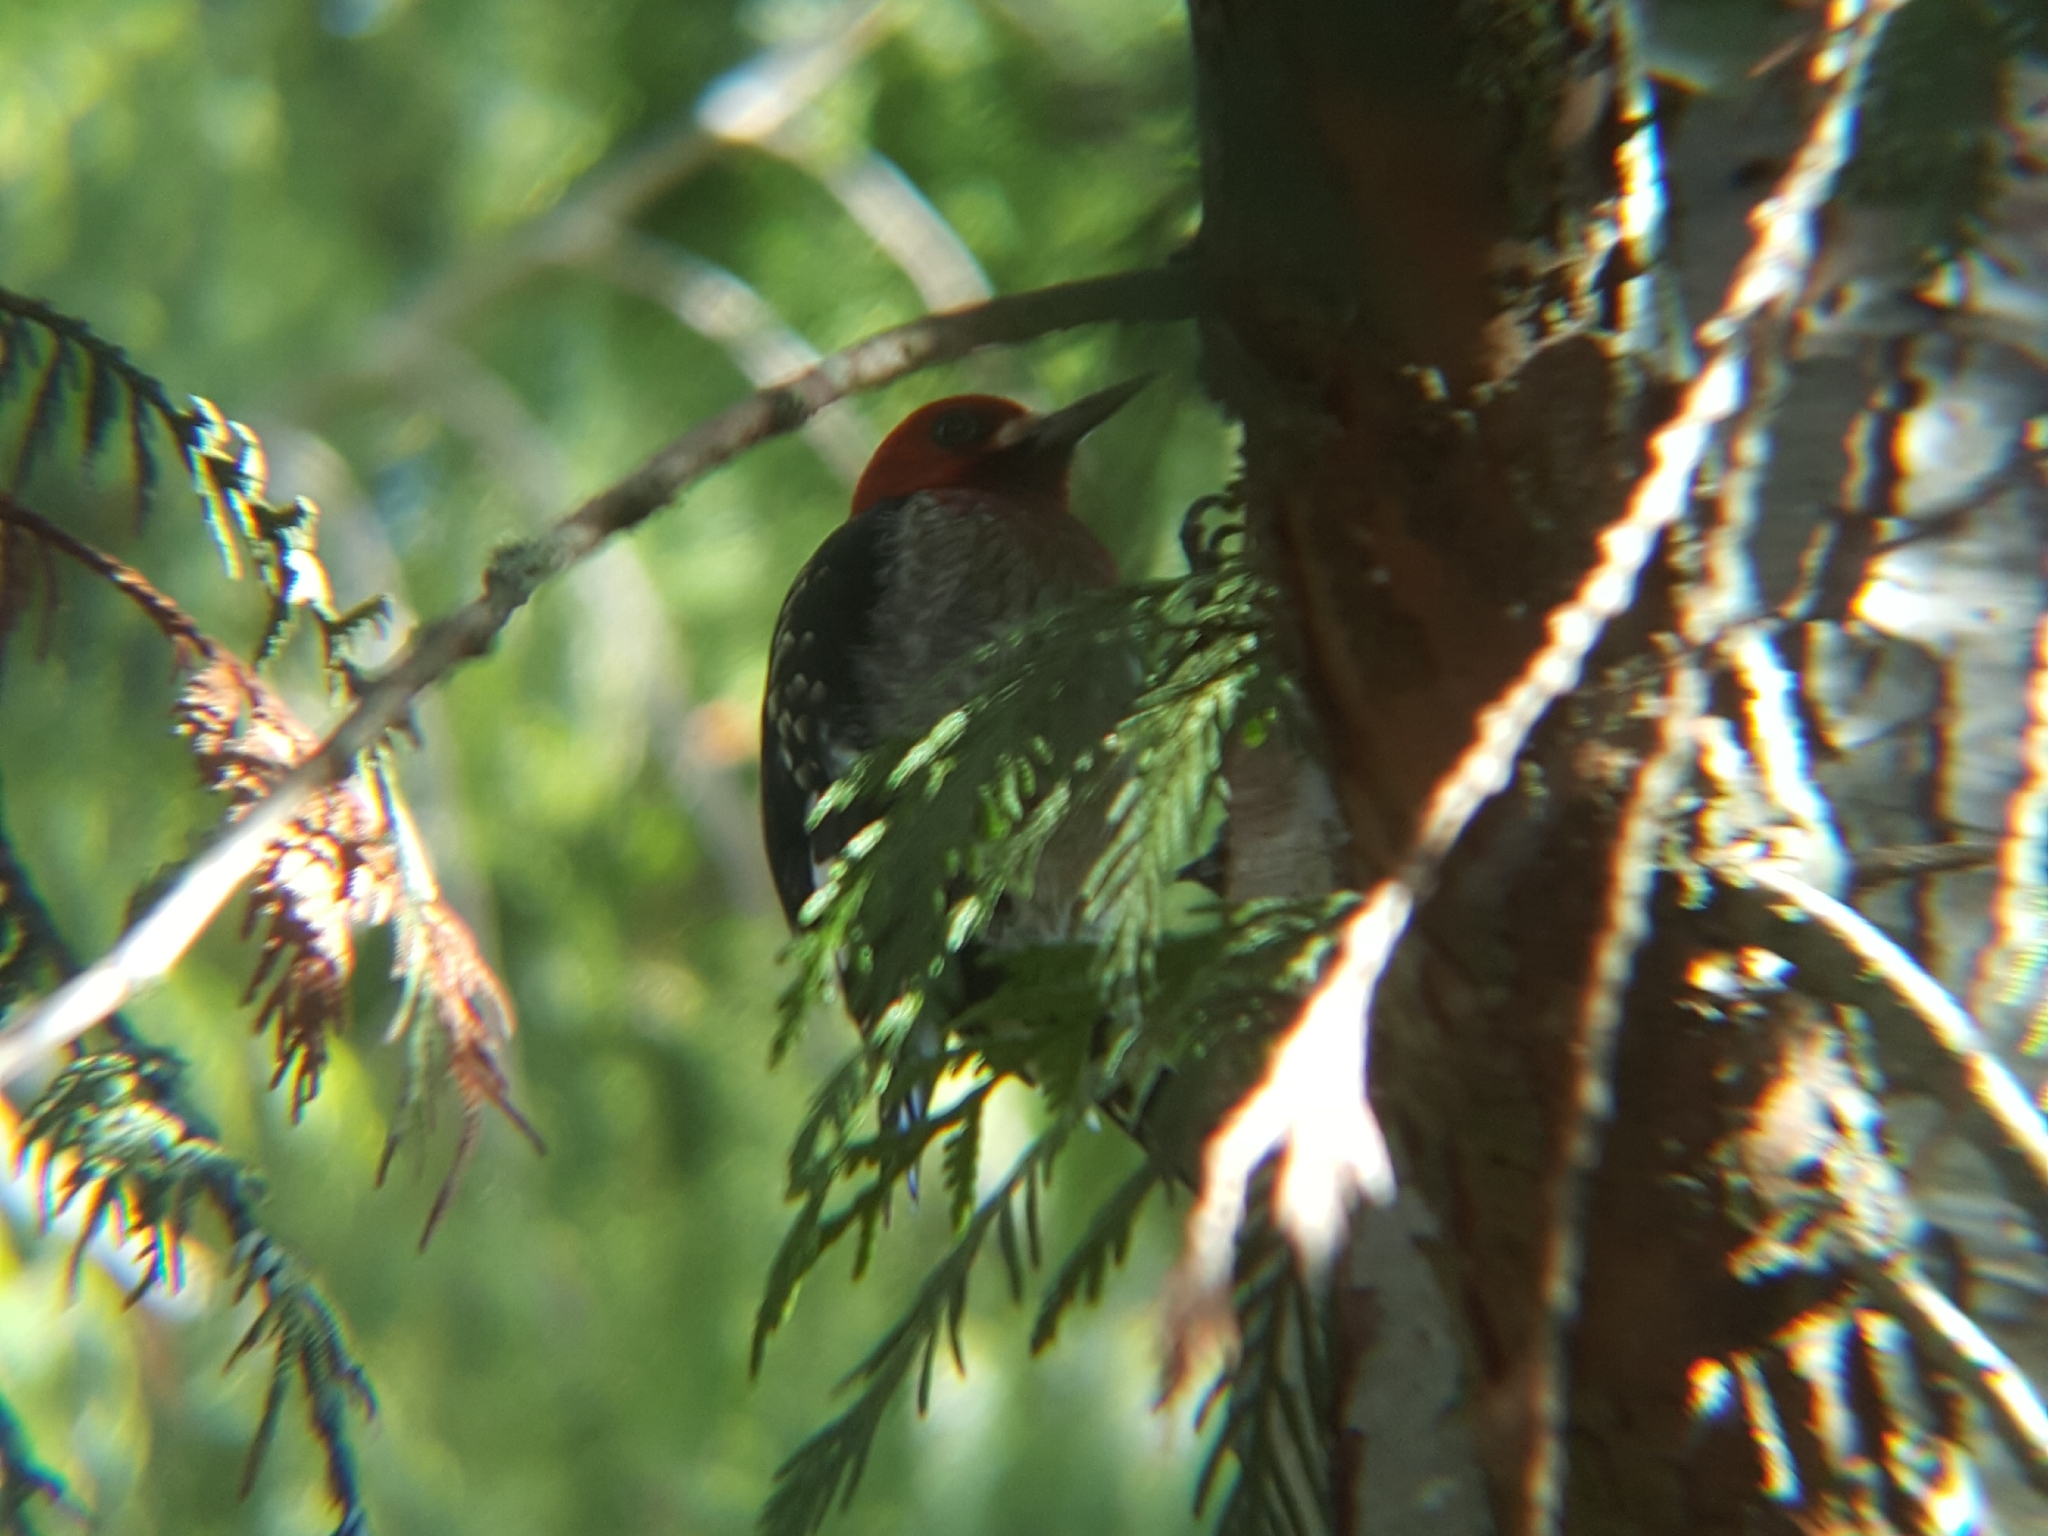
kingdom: Animalia
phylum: Chordata
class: Aves
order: Piciformes
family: Picidae
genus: Sphyrapicus
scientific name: Sphyrapicus ruber
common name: Red-breasted sapsucker
